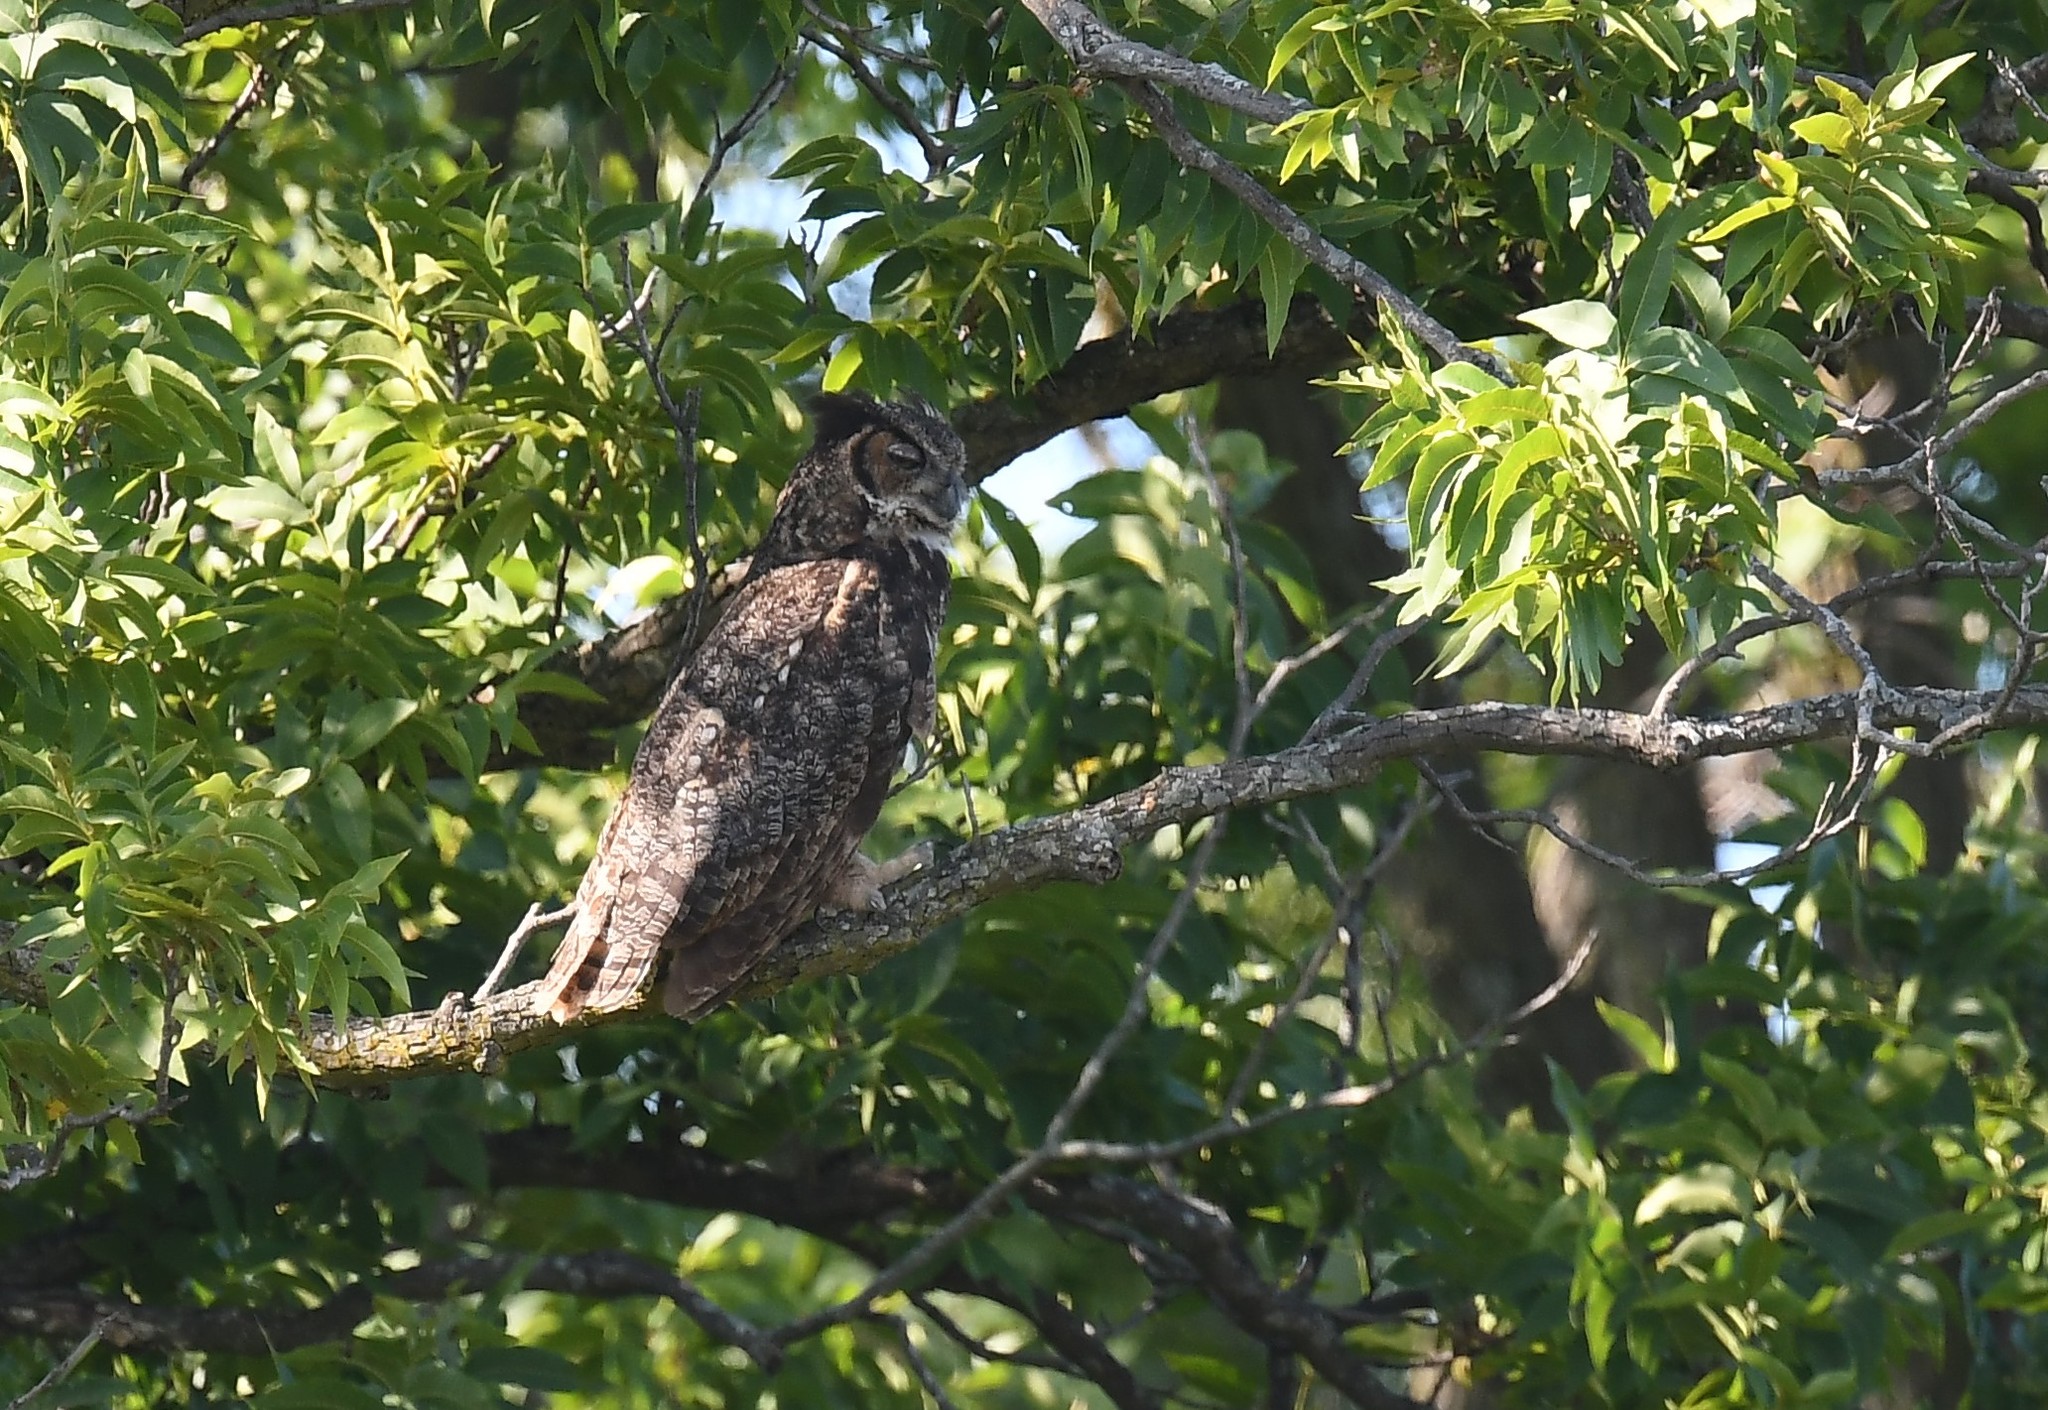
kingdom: Animalia
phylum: Chordata
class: Aves
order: Strigiformes
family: Strigidae
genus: Bubo
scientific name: Bubo virginianus
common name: Great horned owl
